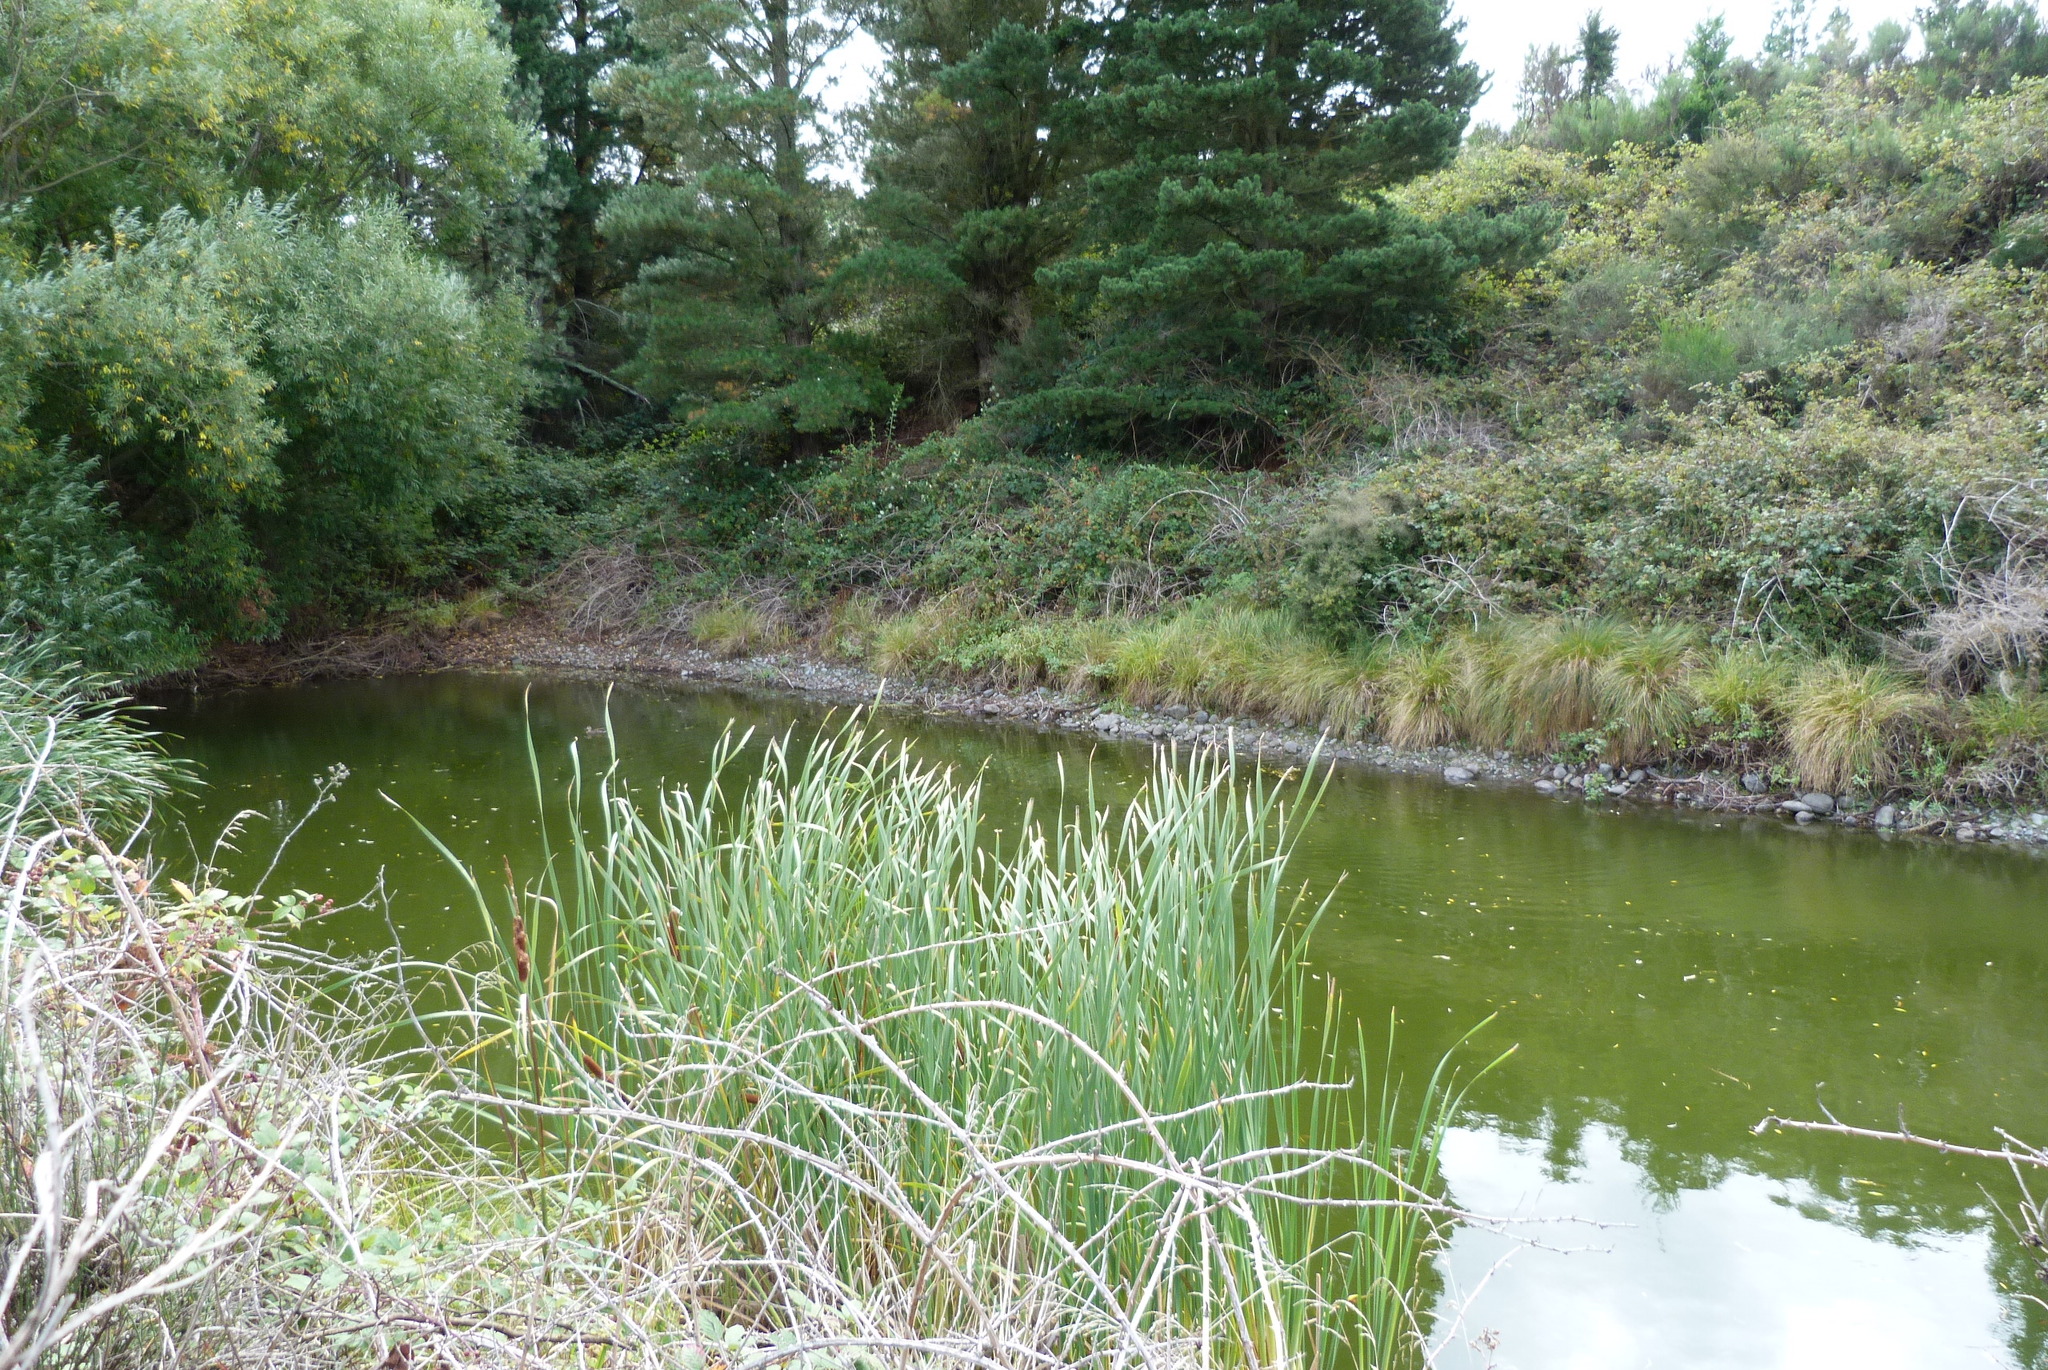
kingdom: Plantae
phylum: Tracheophyta
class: Liliopsida
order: Poales
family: Typhaceae
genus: Typha
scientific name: Typha orientalis
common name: Bullrush
